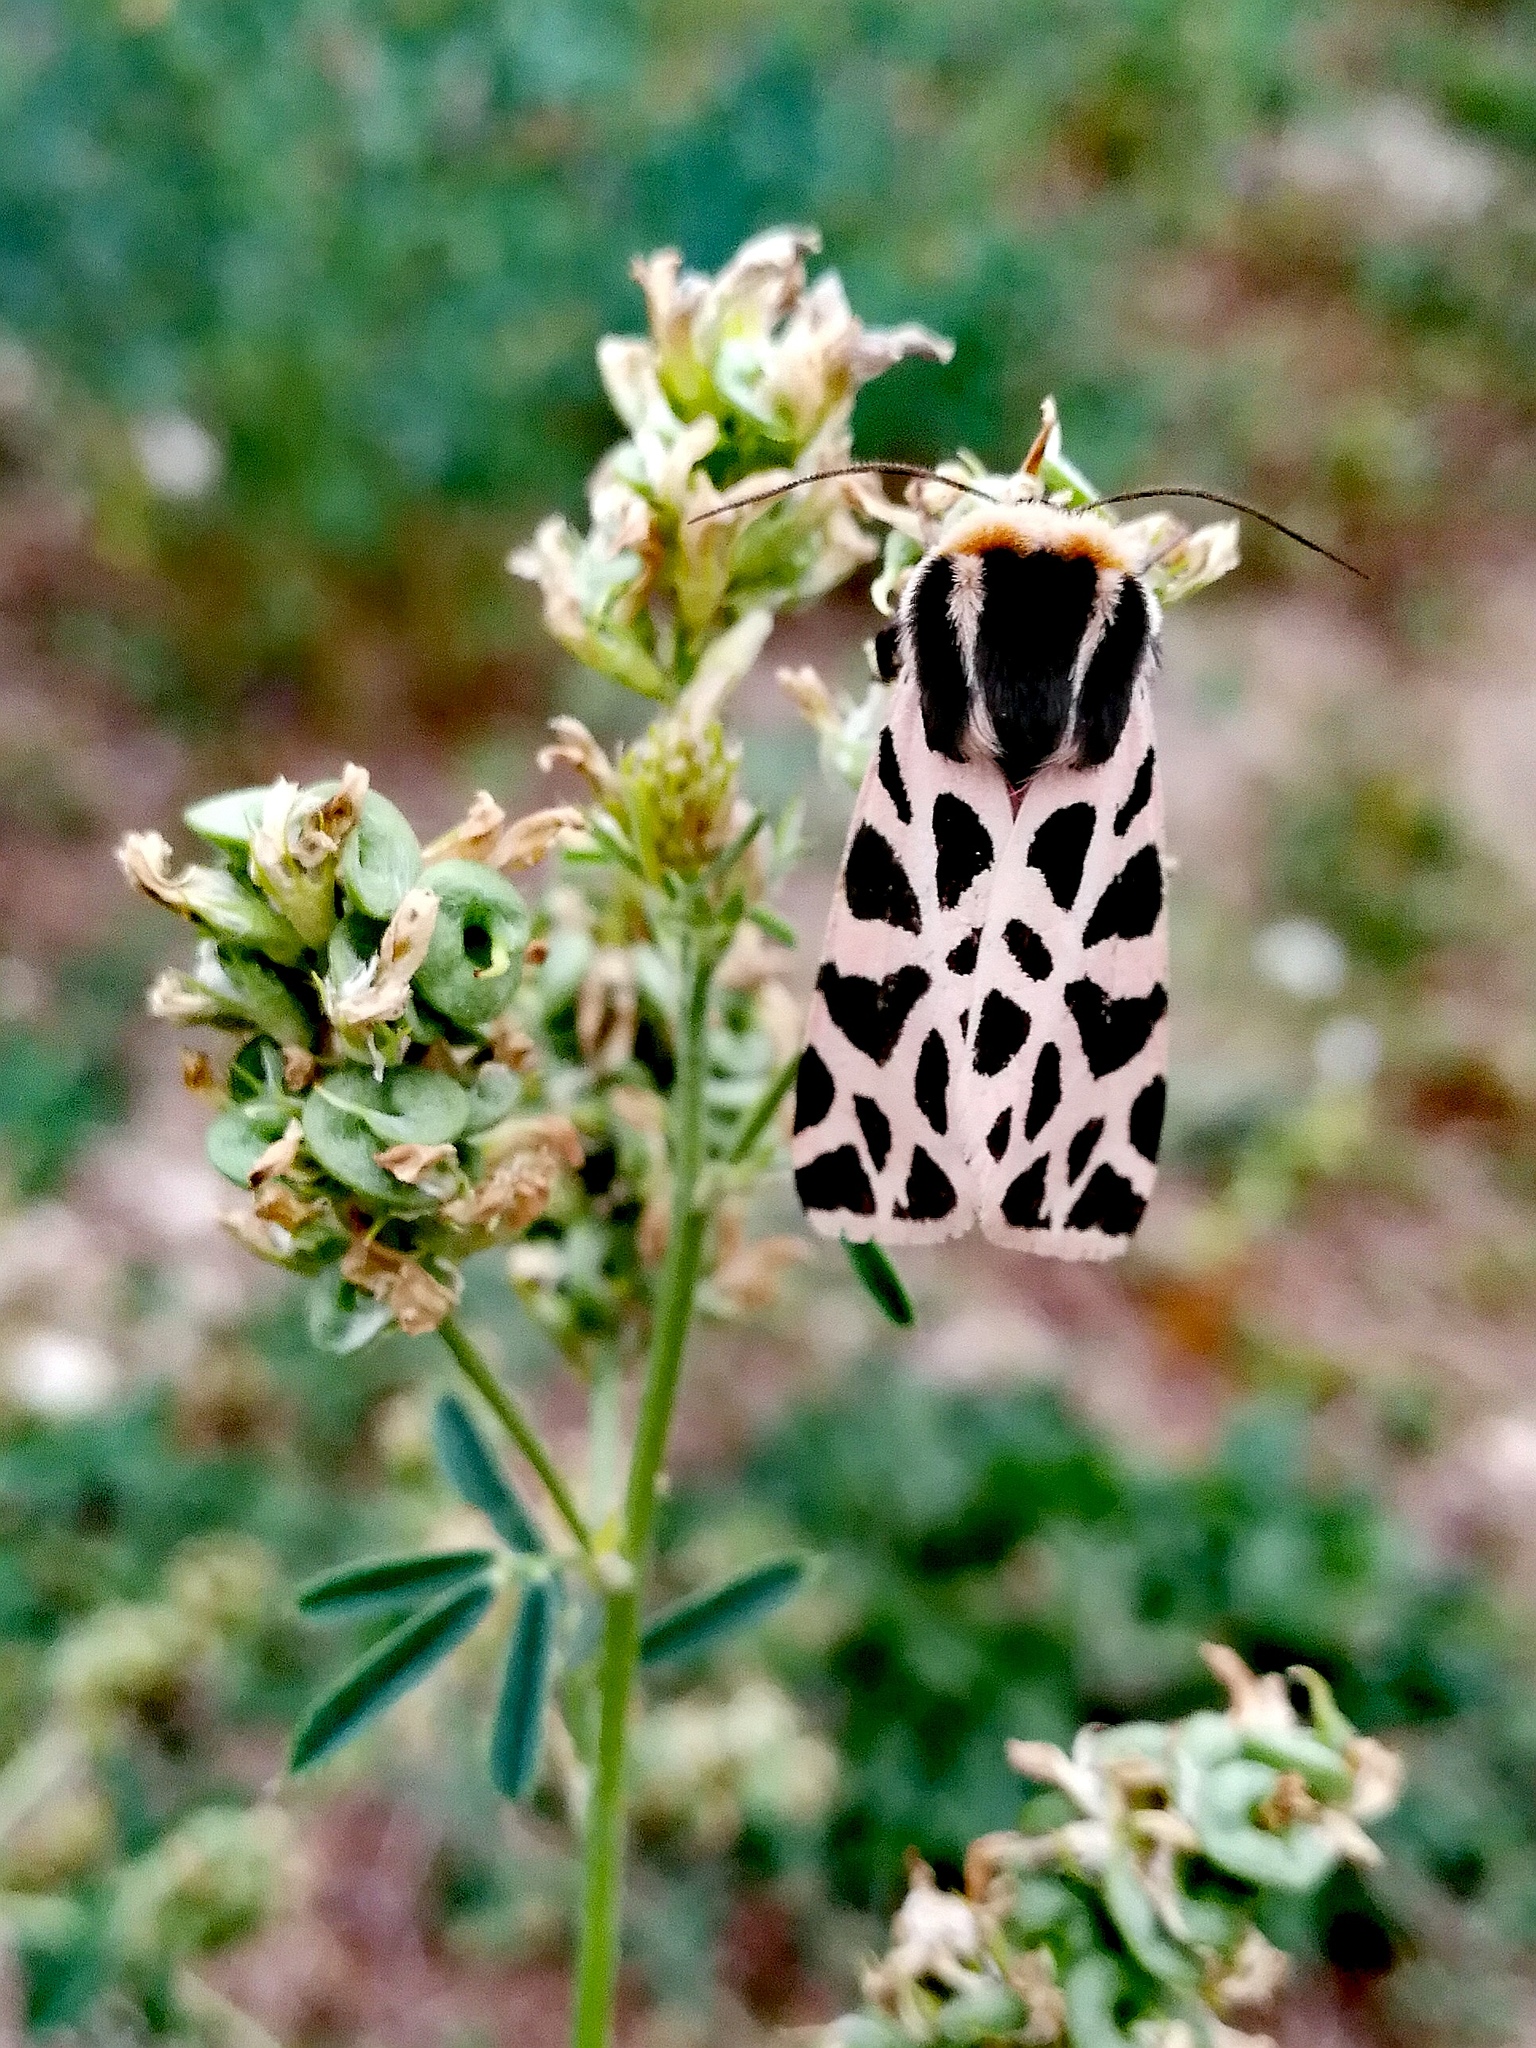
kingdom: Animalia
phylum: Arthropoda
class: Insecta
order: Lepidoptera
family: Erebidae
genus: Cymbalophora
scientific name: Cymbalophora pudica
